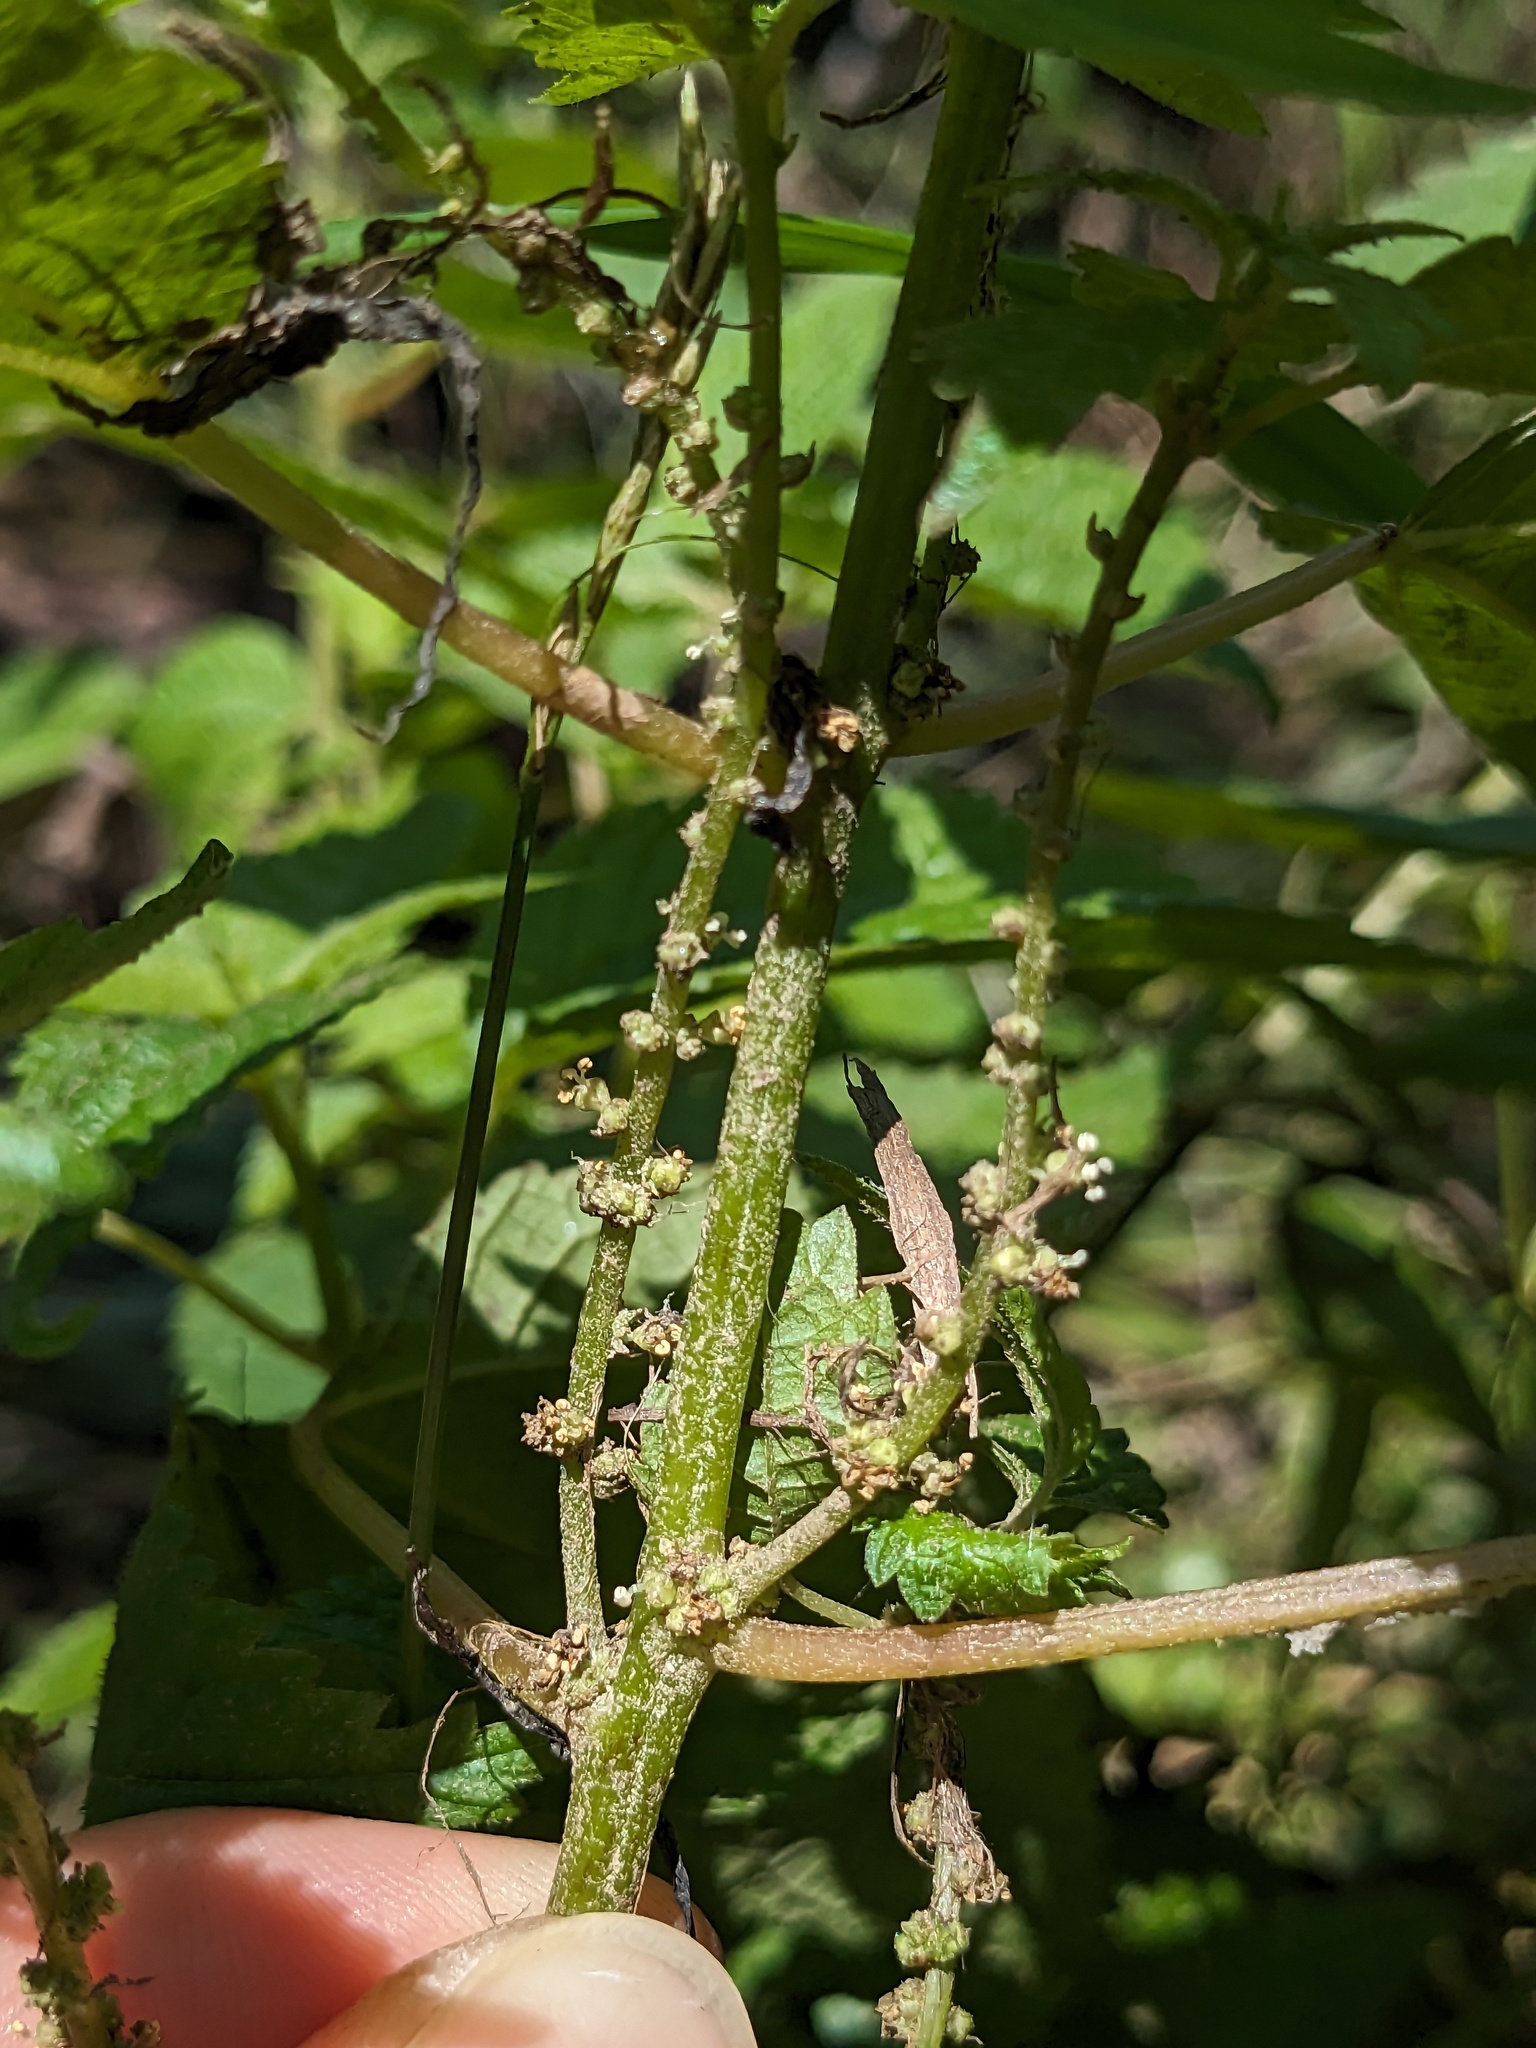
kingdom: Plantae
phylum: Tracheophyta
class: Magnoliopsida
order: Rosales
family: Urticaceae
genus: Boehmeria
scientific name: Boehmeria cylindrica
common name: Bog-hemp
